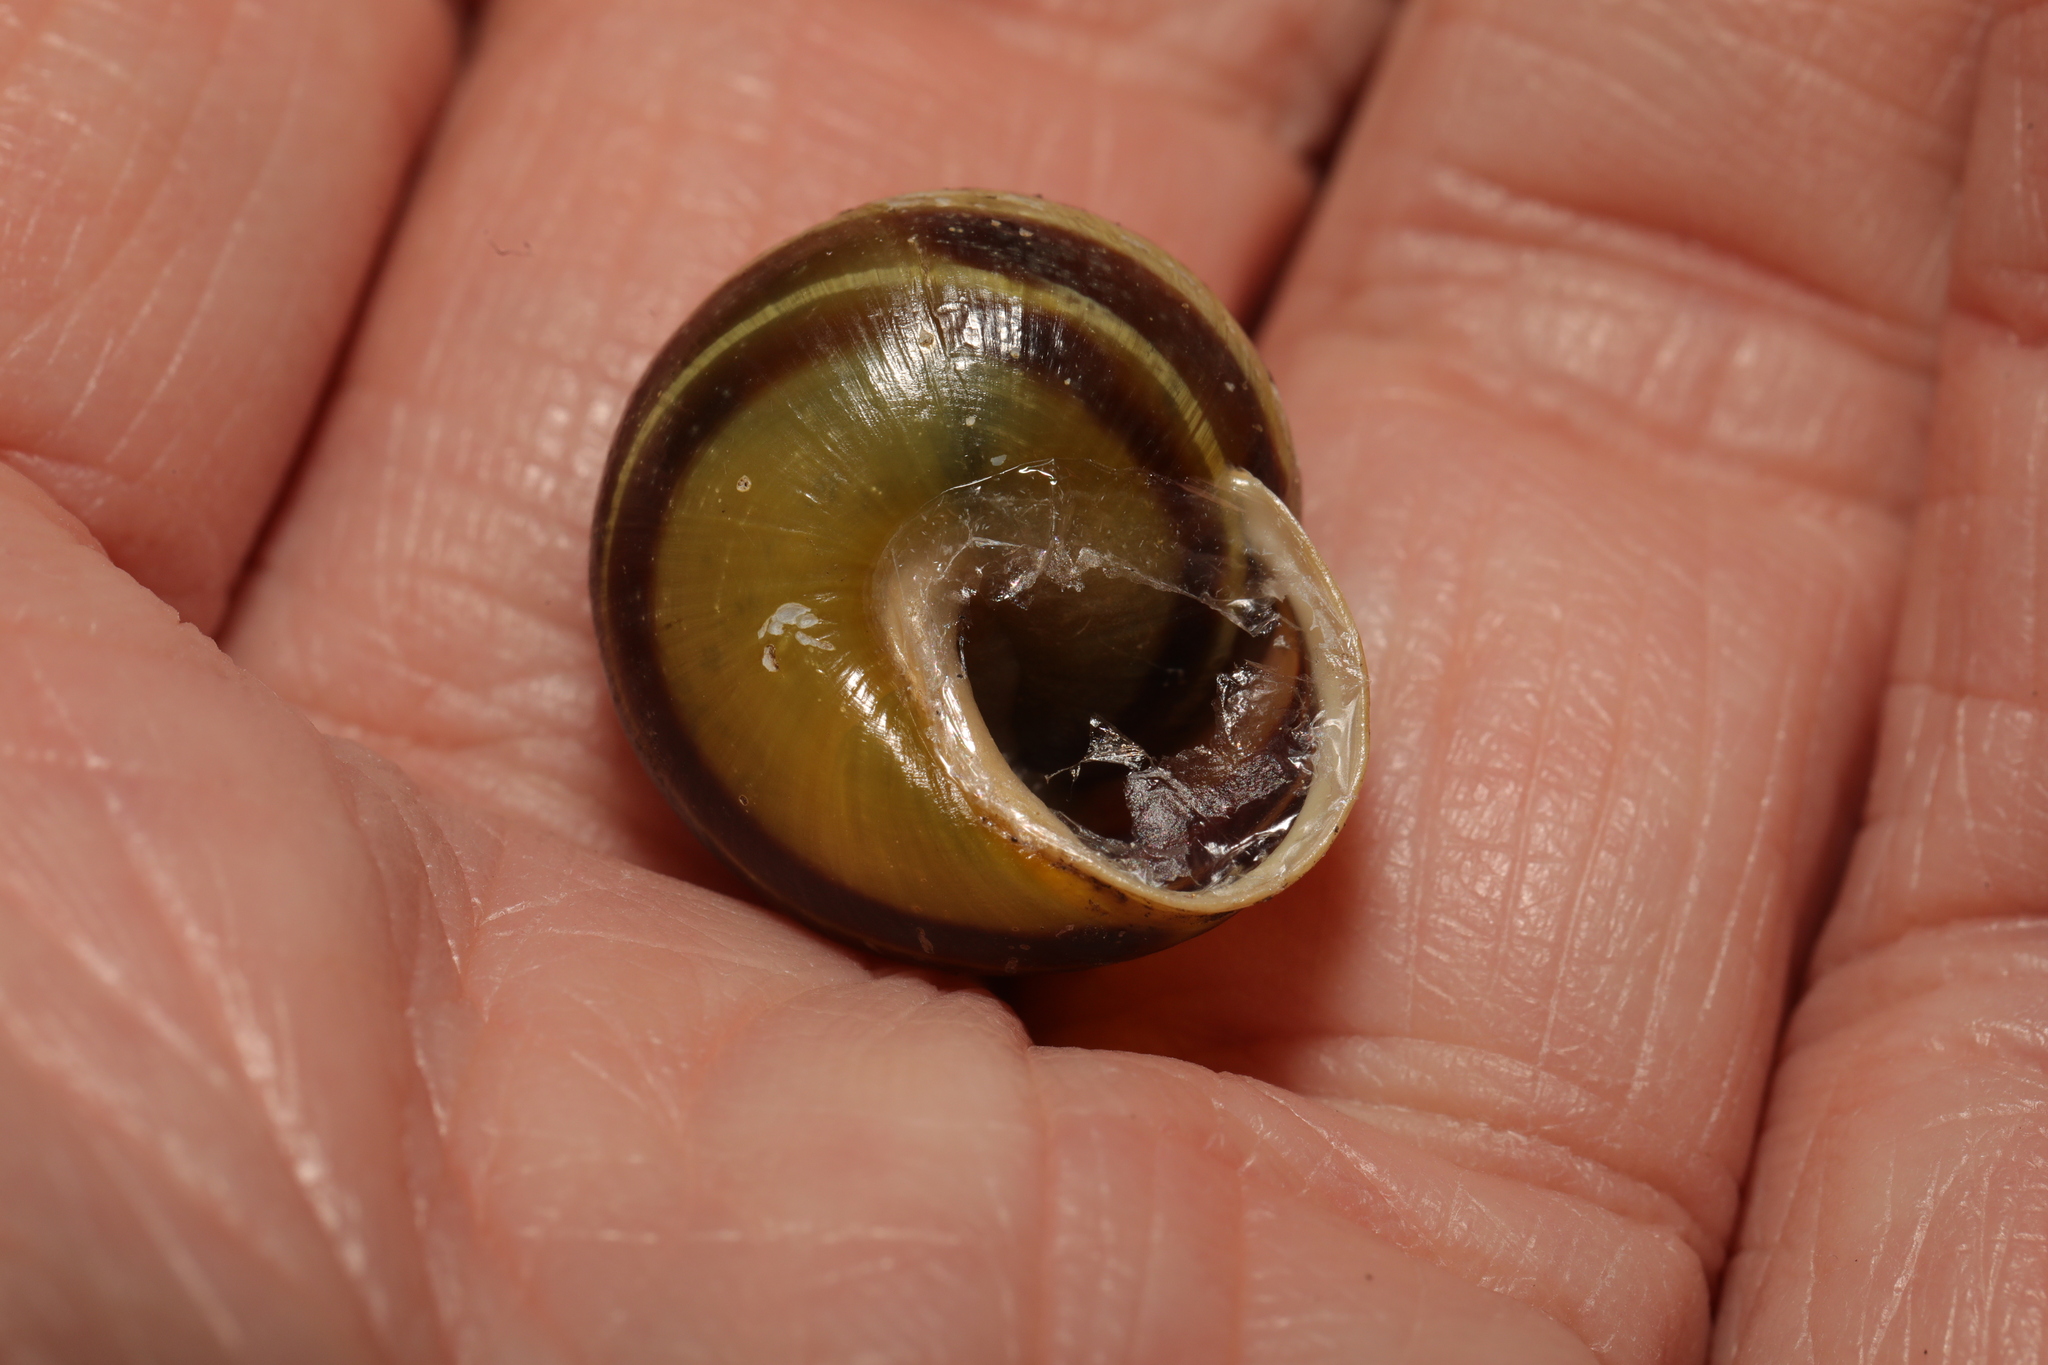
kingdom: Animalia
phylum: Mollusca
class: Gastropoda
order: Stylommatophora
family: Helicidae
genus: Cepaea
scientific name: Cepaea hortensis
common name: White-lip gardensnail
